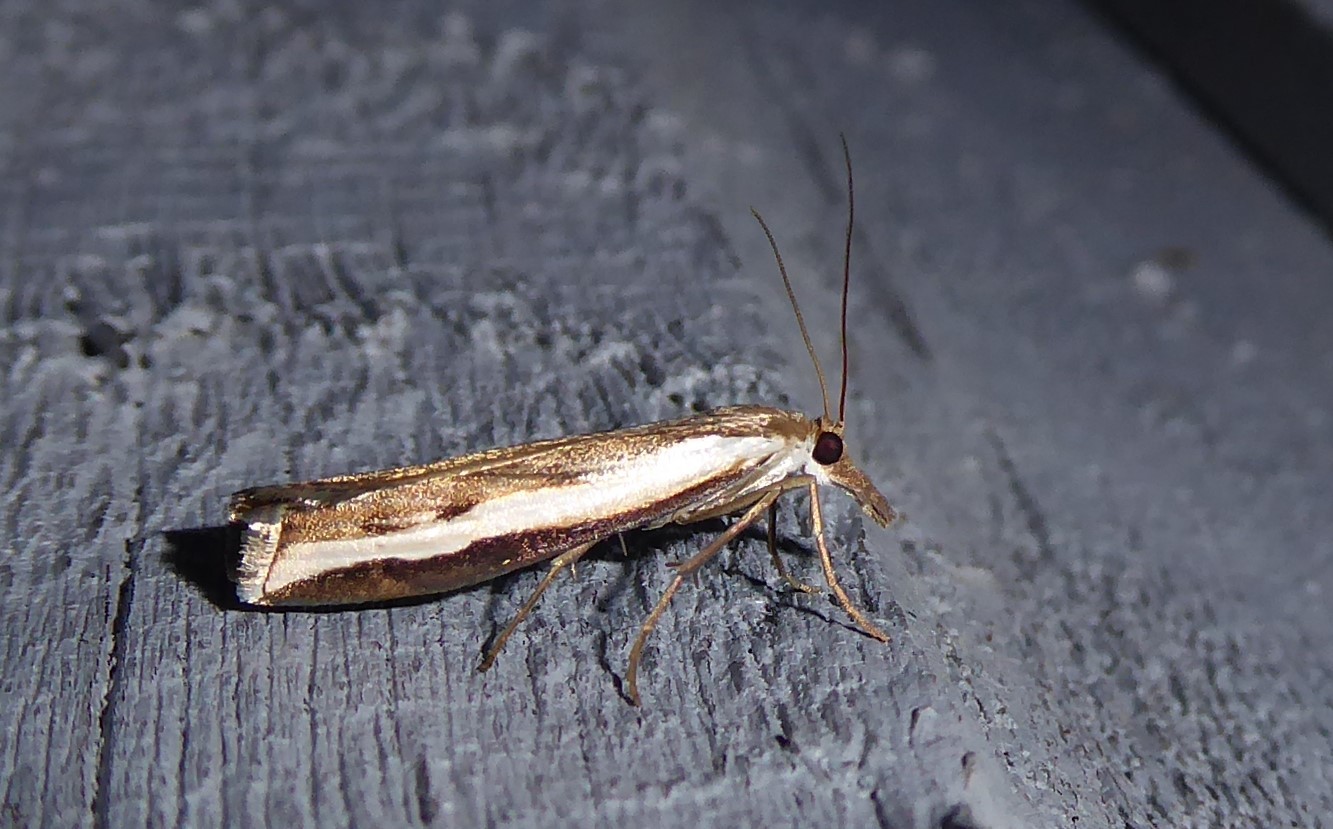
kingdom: Animalia
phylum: Arthropoda
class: Insecta
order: Lepidoptera
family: Crambidae
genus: Orocrambus
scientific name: Orocrambus flexuosellus
